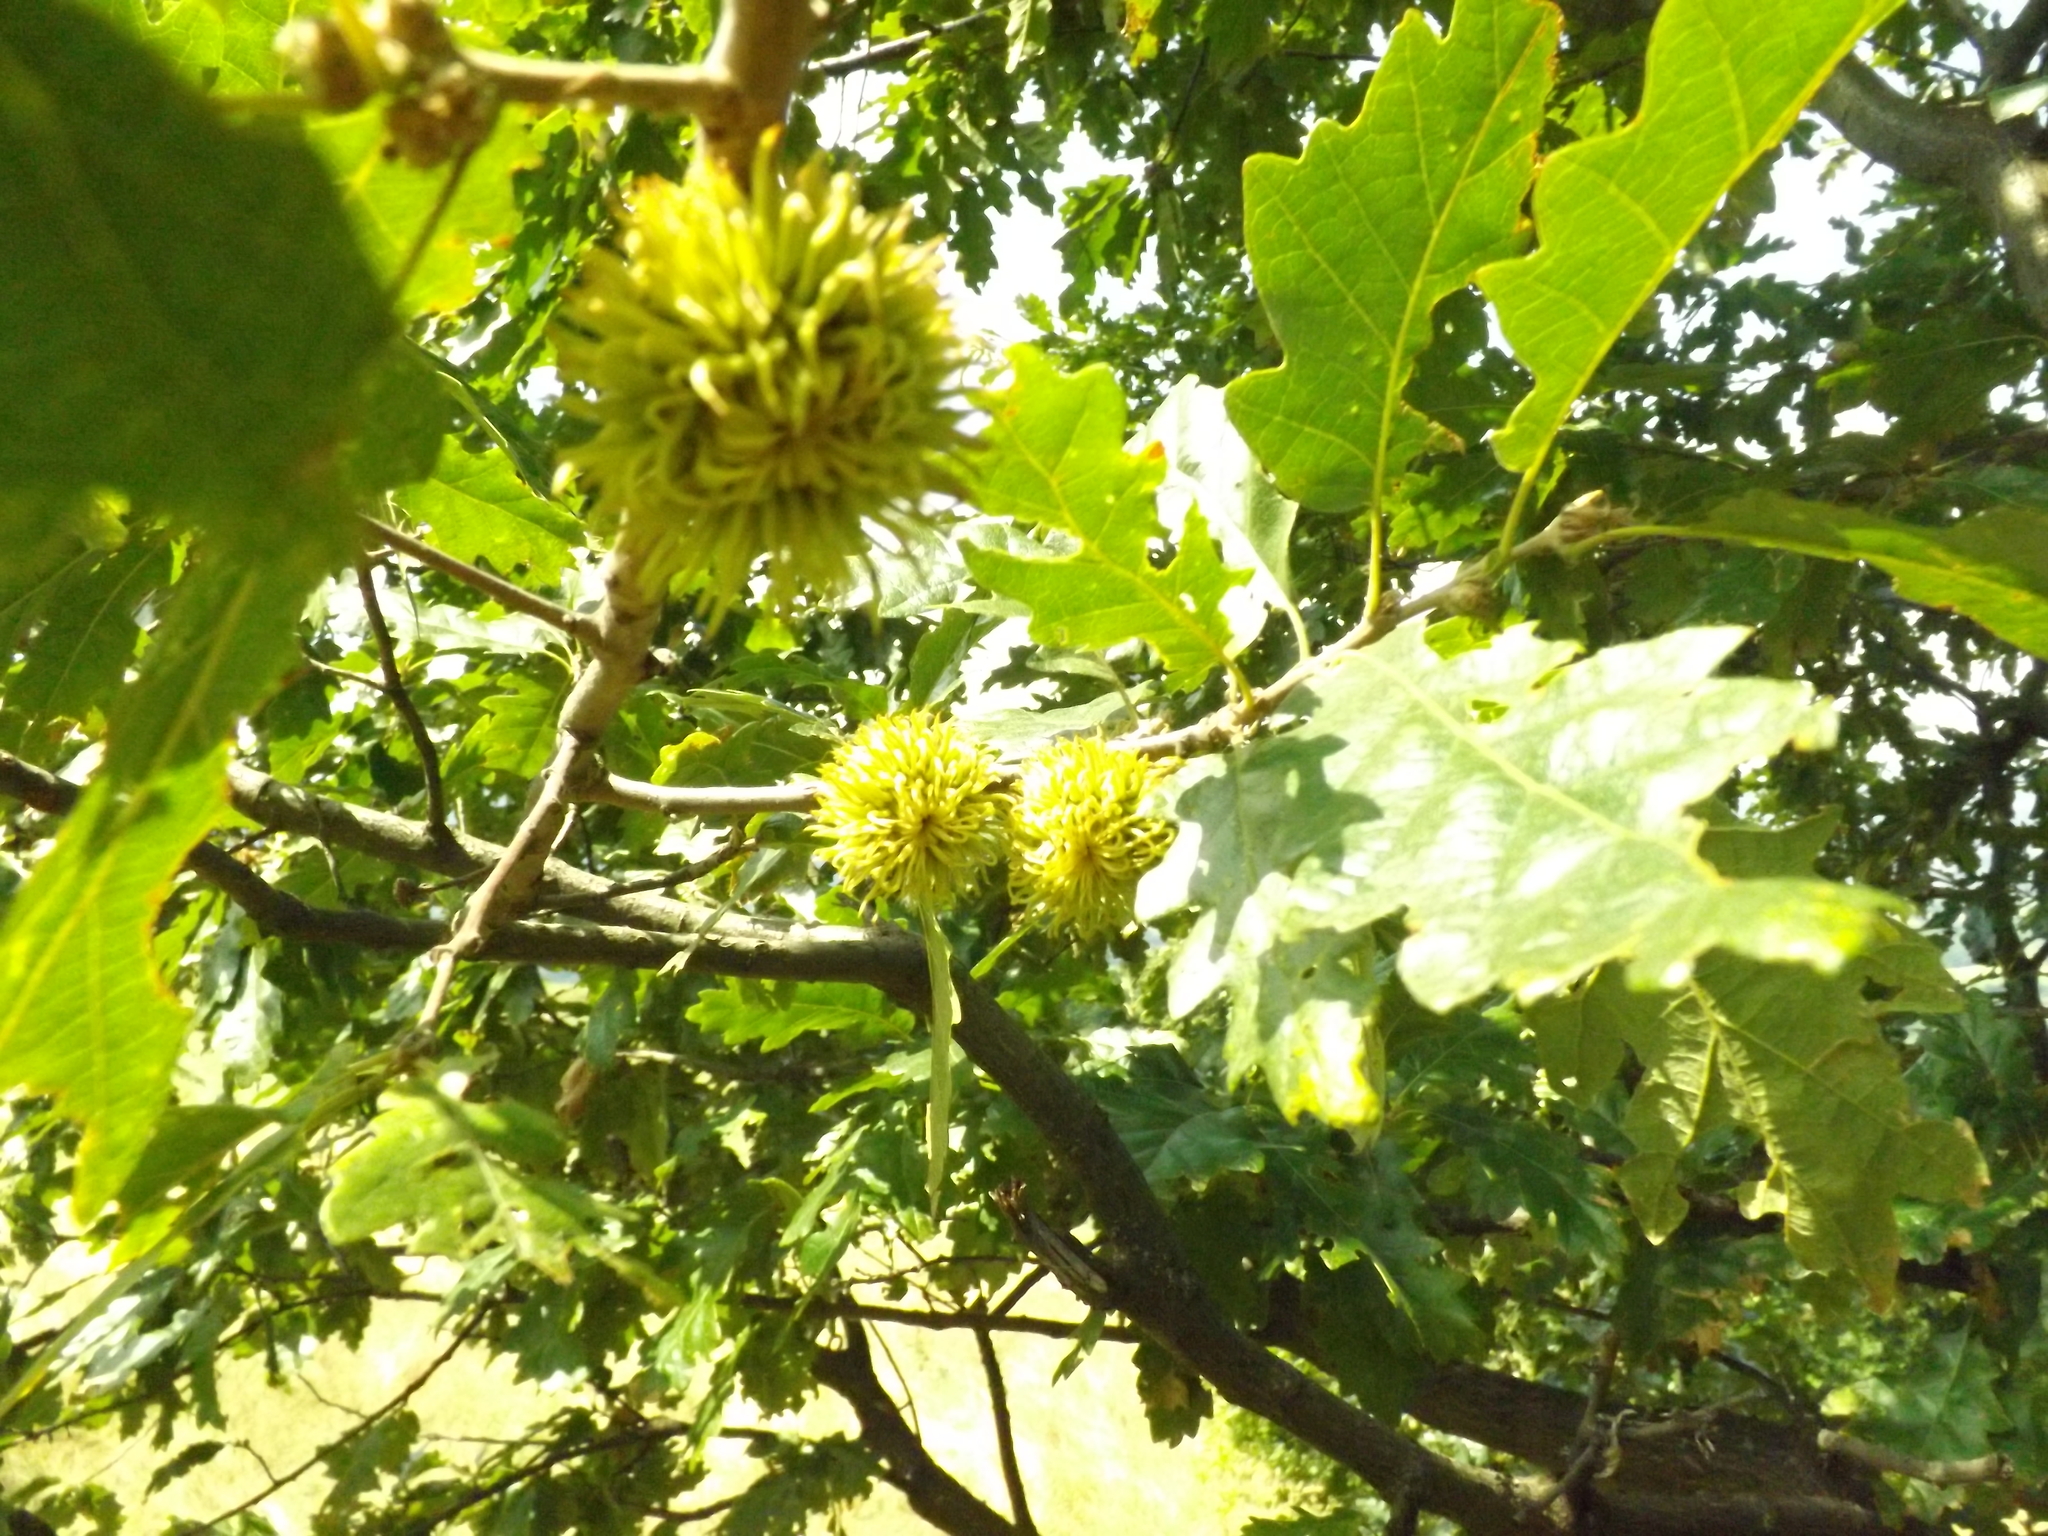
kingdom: Plantae
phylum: Tracheophyta
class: Magnoliopsida
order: Fagales
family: Fagaceae
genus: Quercus
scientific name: Quercus cerris
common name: Turkey oak
